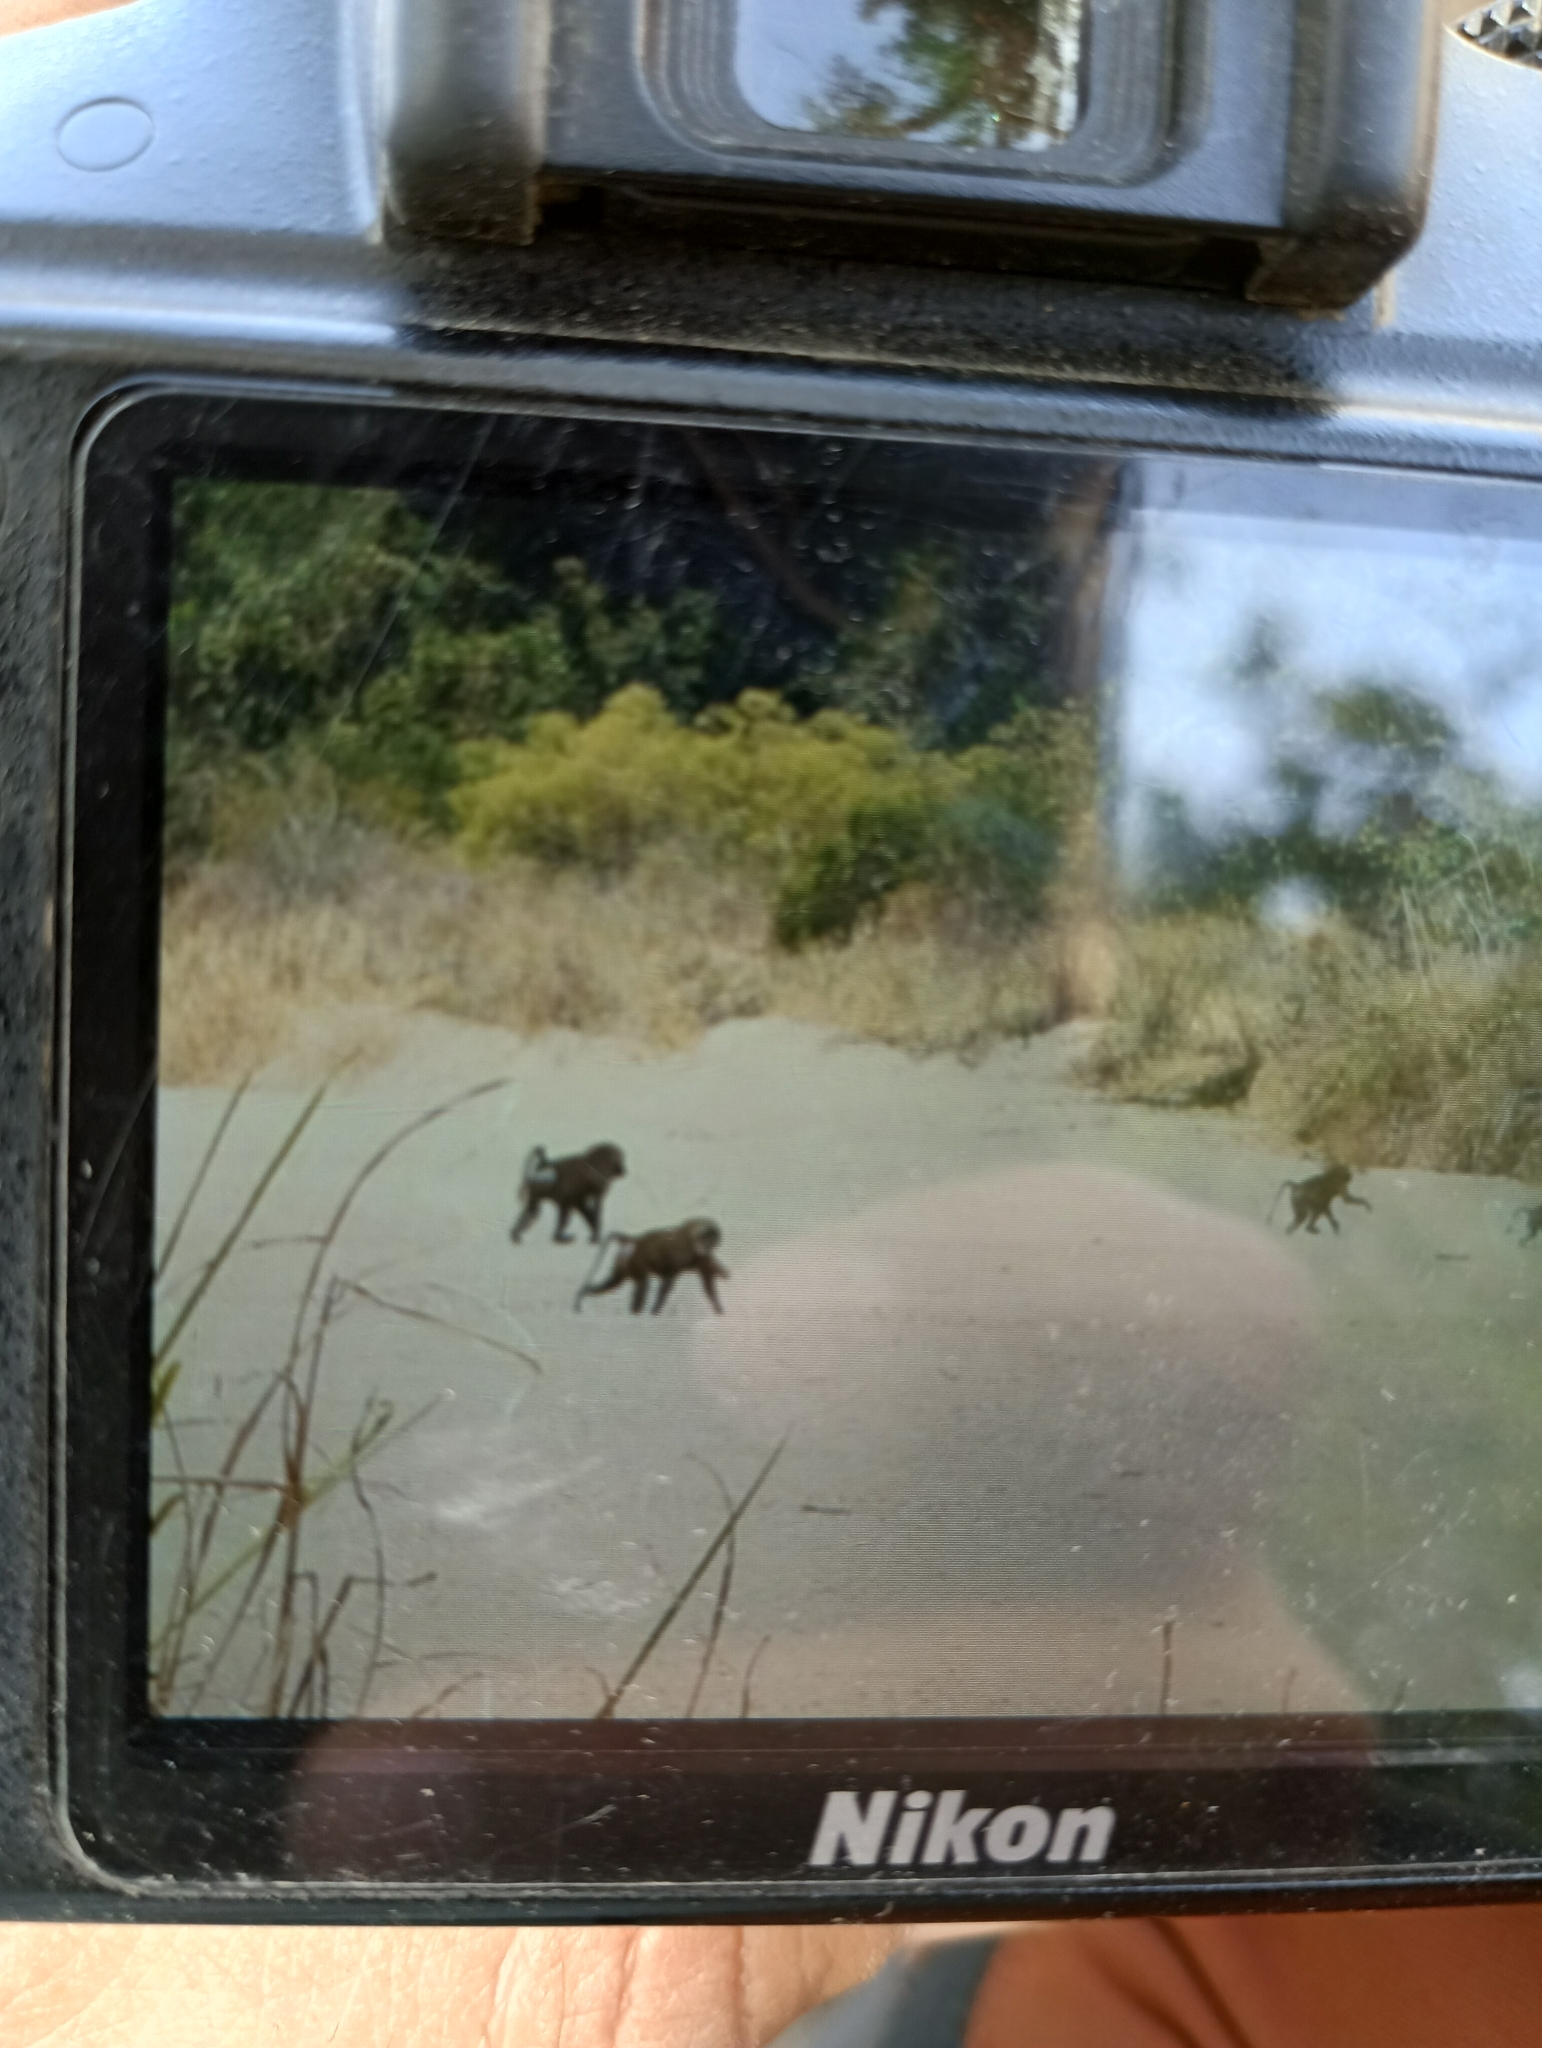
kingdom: Animalia
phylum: Chordata
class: Mammalia
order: Primates
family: Cercopithecidae
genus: Papio
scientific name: Papio anubis
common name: Olive baboon
